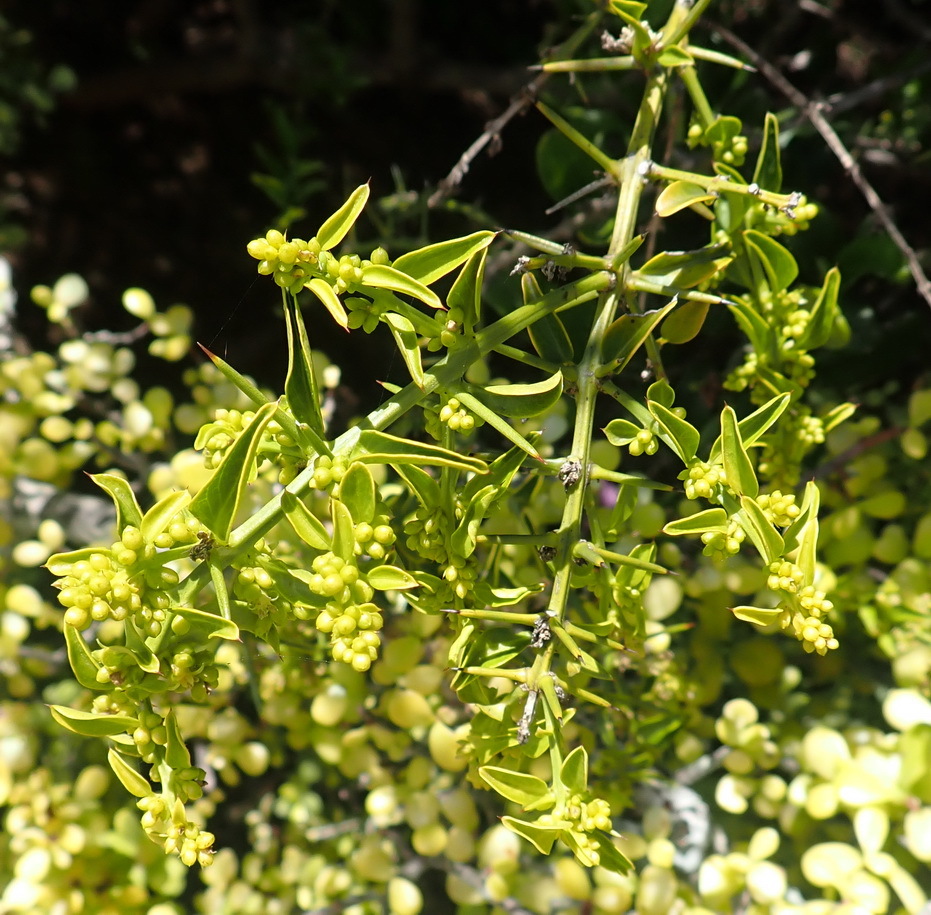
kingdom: Plantae
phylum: Tracheophyta
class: Magnoliopsida
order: Brassicales
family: Salvadoraceae
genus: Azima
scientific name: Azima tetracantha
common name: Needle bush
